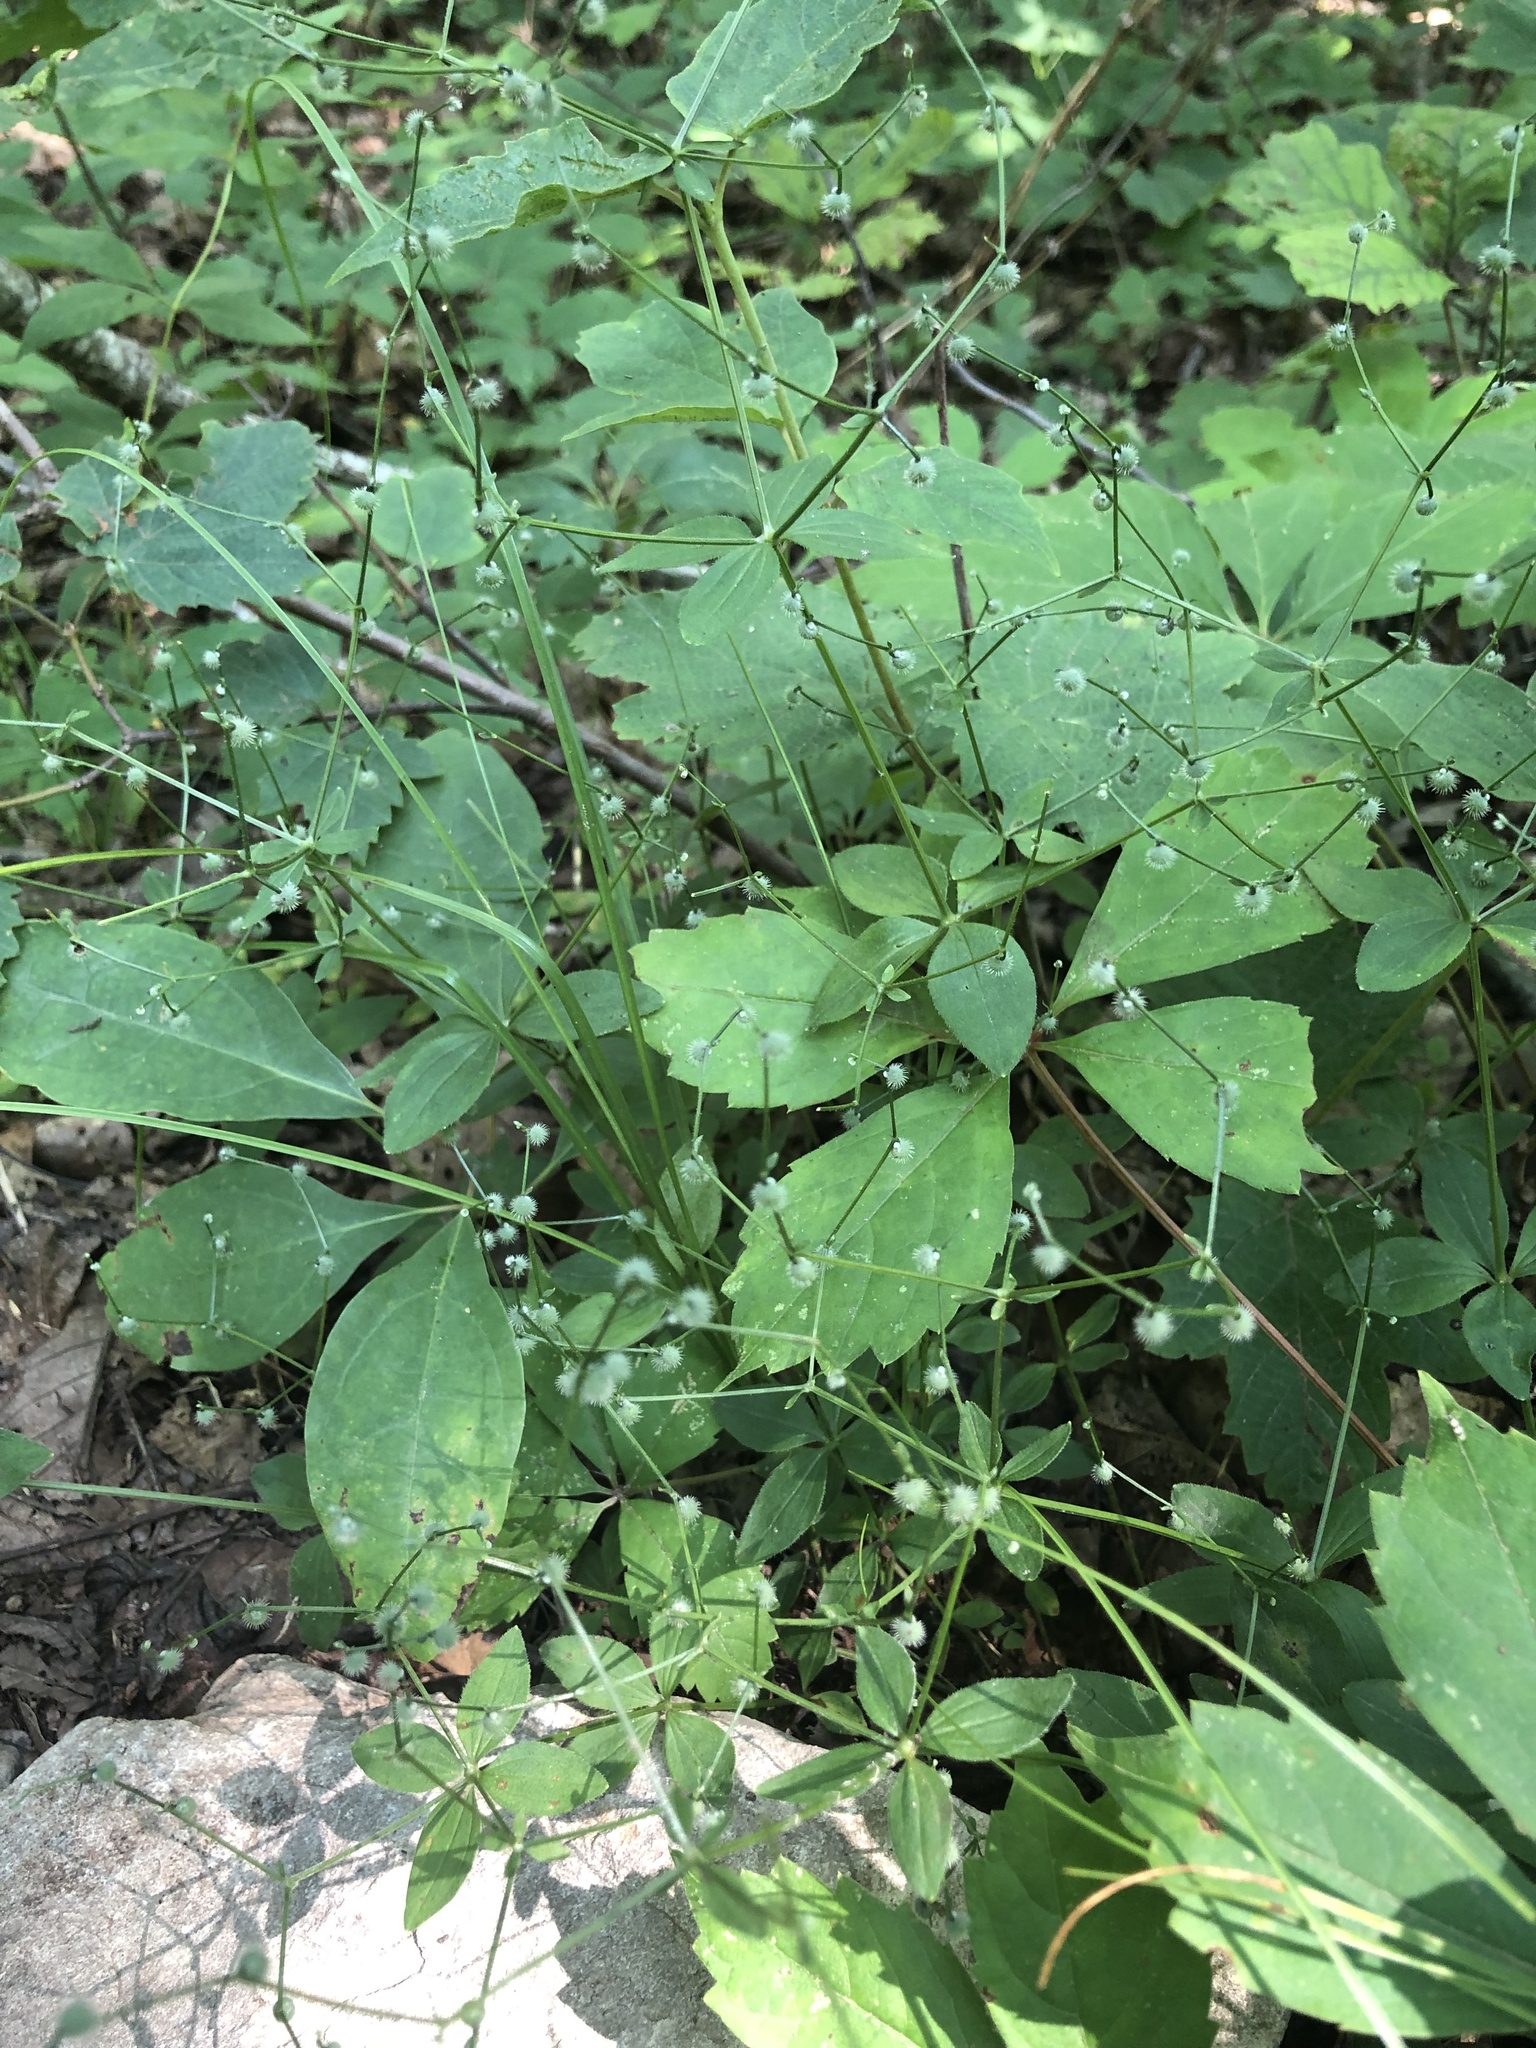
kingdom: Plantae
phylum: Tracheophyta
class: Magnoliopsida
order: Gentianales
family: Rubiaceae
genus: Galium
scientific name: Galium circaezans
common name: Forest bedstraw
